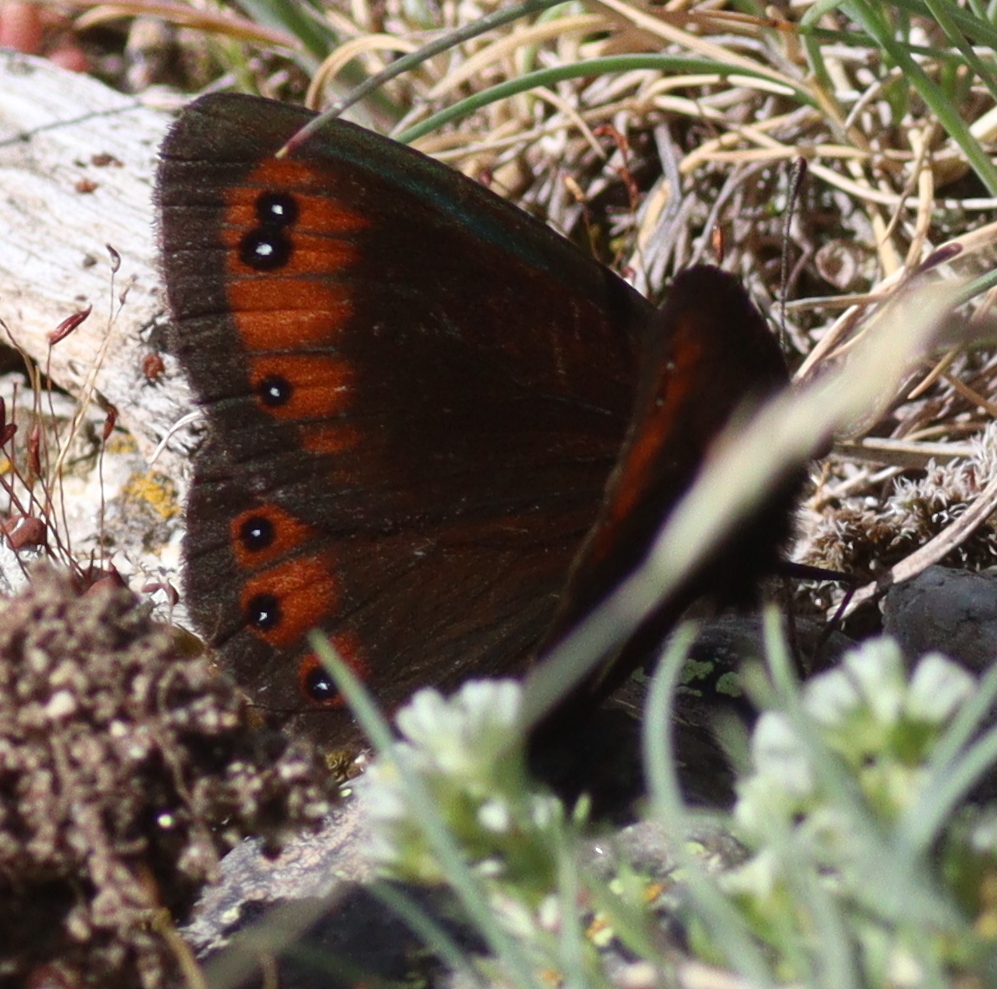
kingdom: Animalia
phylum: Arthropoda
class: Insecta
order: Lepidoptera
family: Nymphalidae
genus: Erebia
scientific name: Erebia meolans
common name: Piedmont ringlet
